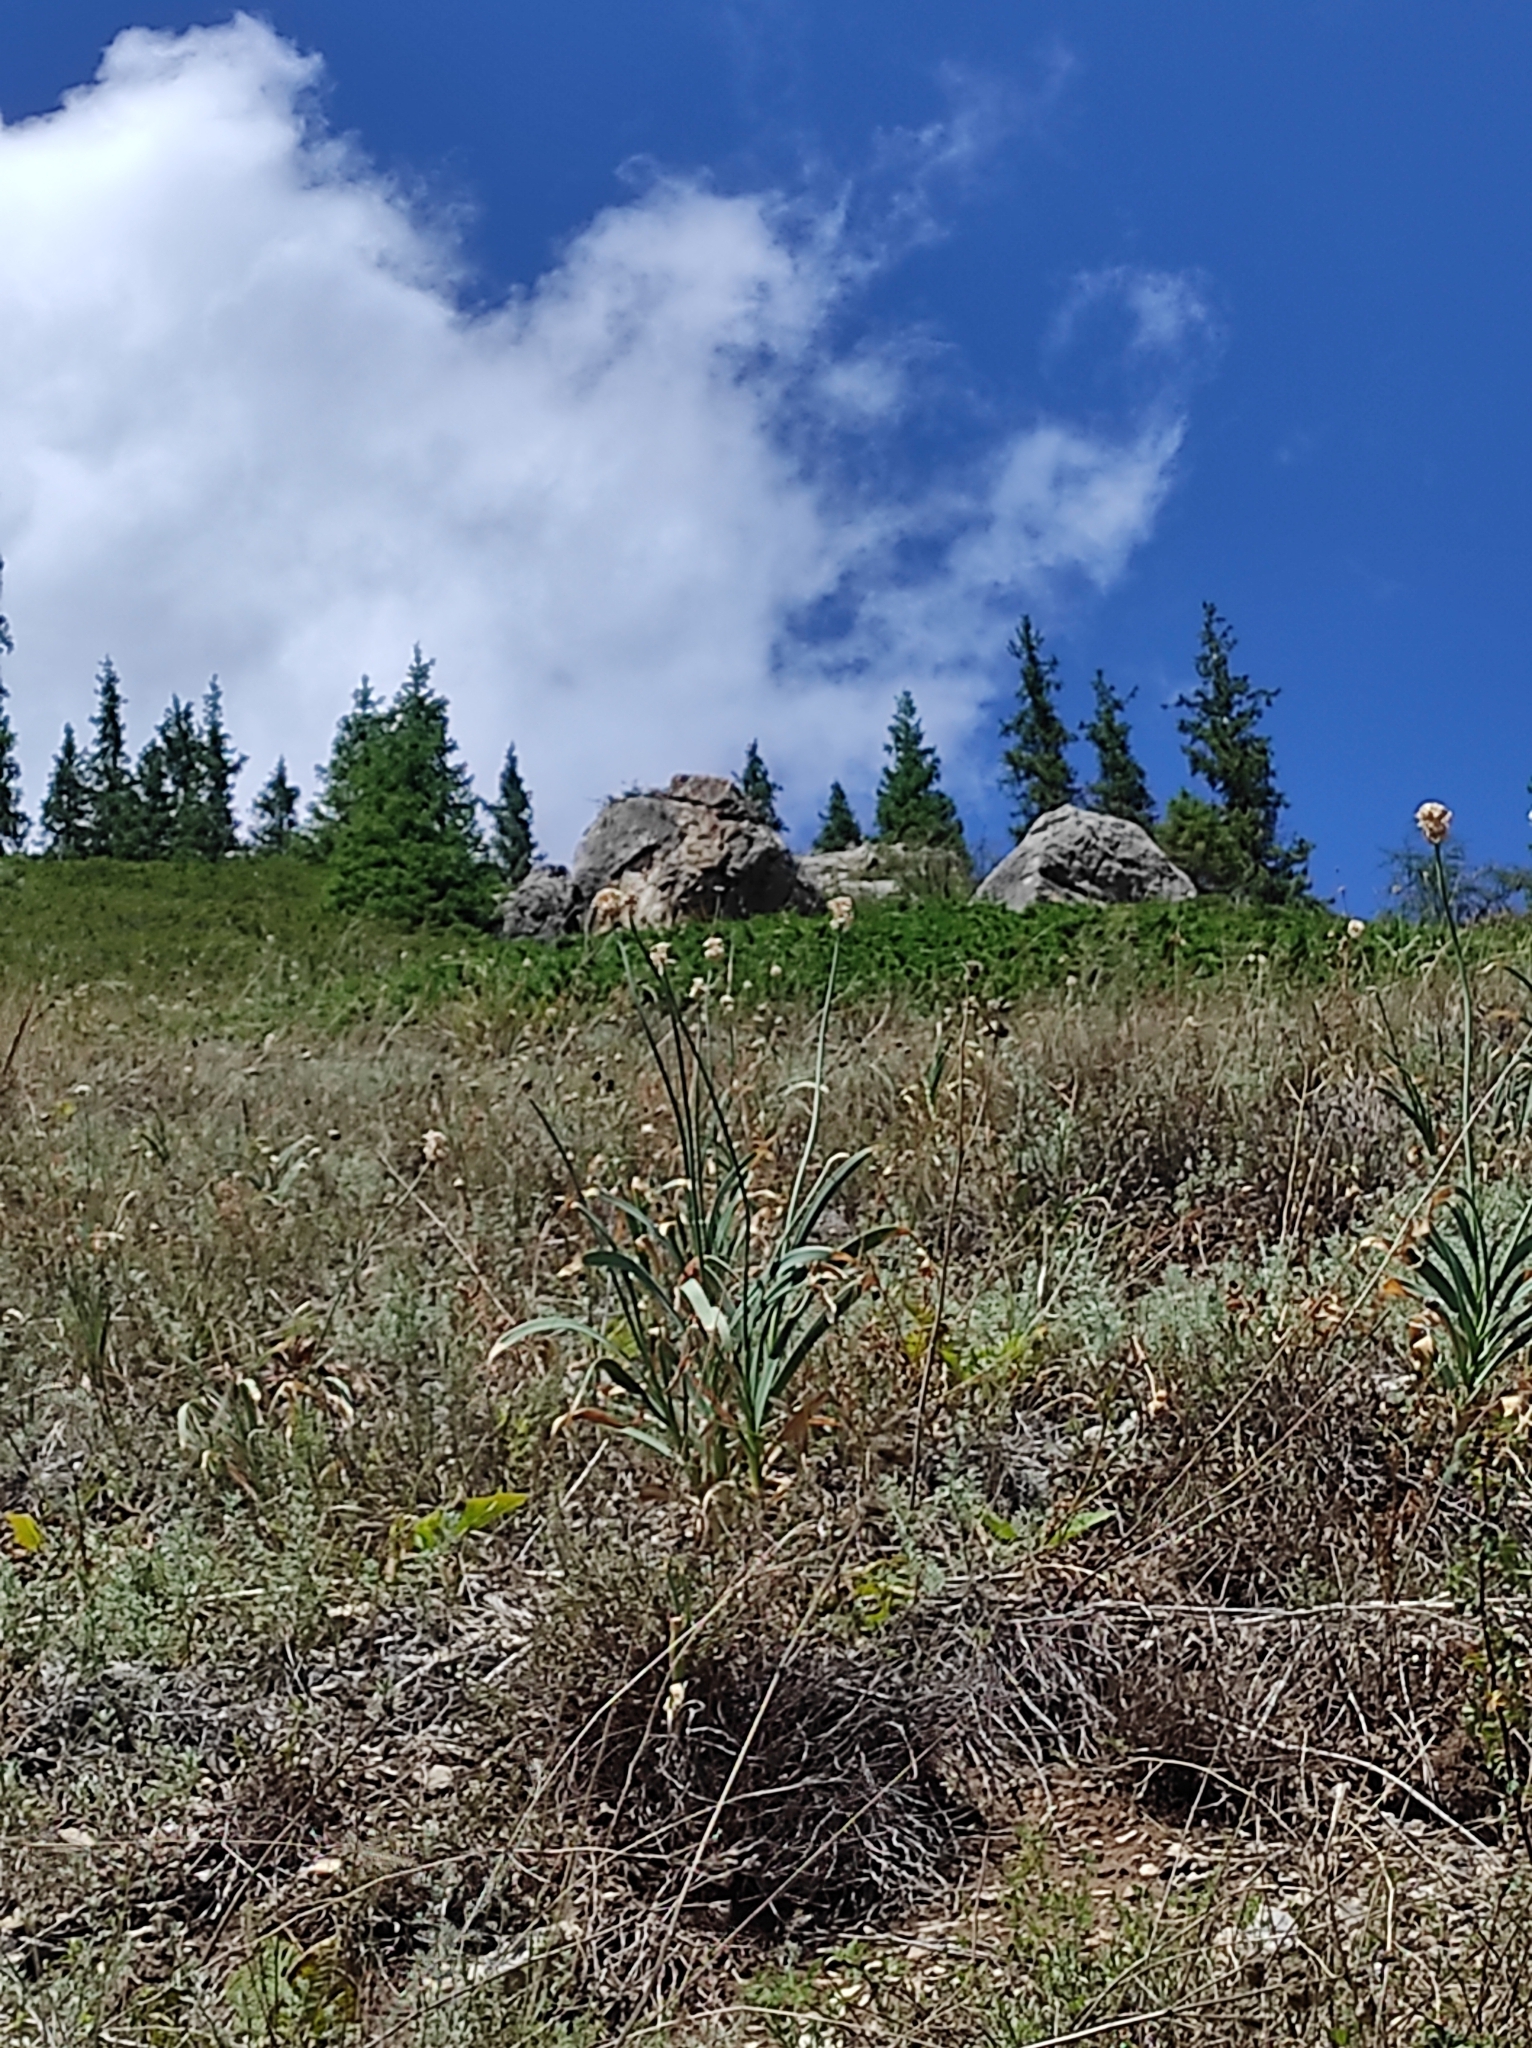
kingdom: Plantae
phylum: Tracheophyta
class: Liliopsida
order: Asparagales
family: Amaryllidaceae
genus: Allium
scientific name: Allium carolinianum
